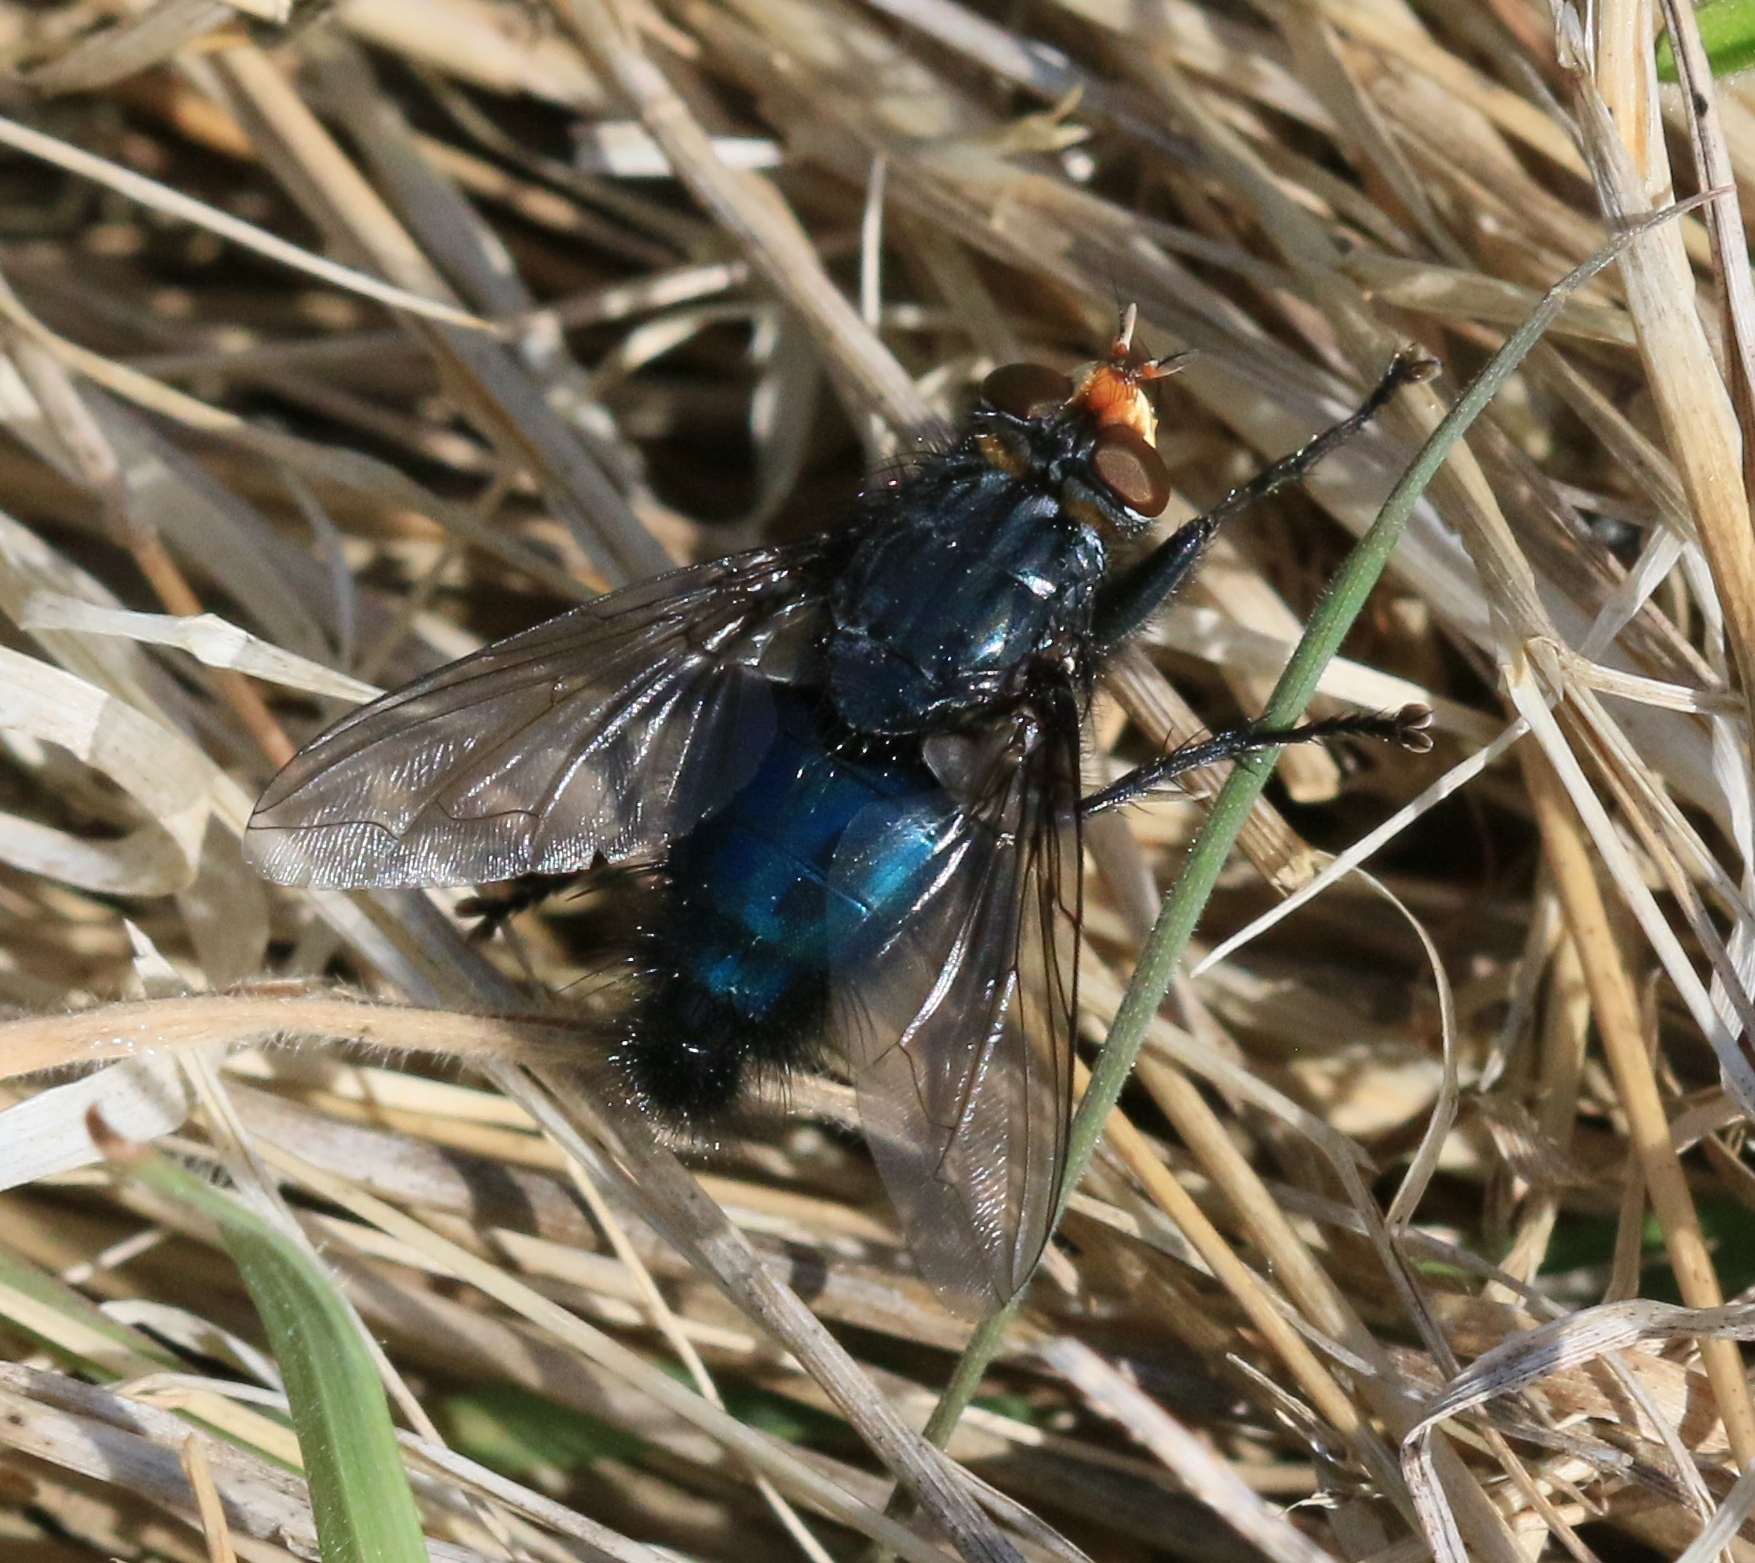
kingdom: Animalia
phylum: Arthropoda
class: Insecta
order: Diptera
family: Calliphoridae
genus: Cynomya
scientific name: Cynomya mortuorum
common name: Bluebottle blow fly
